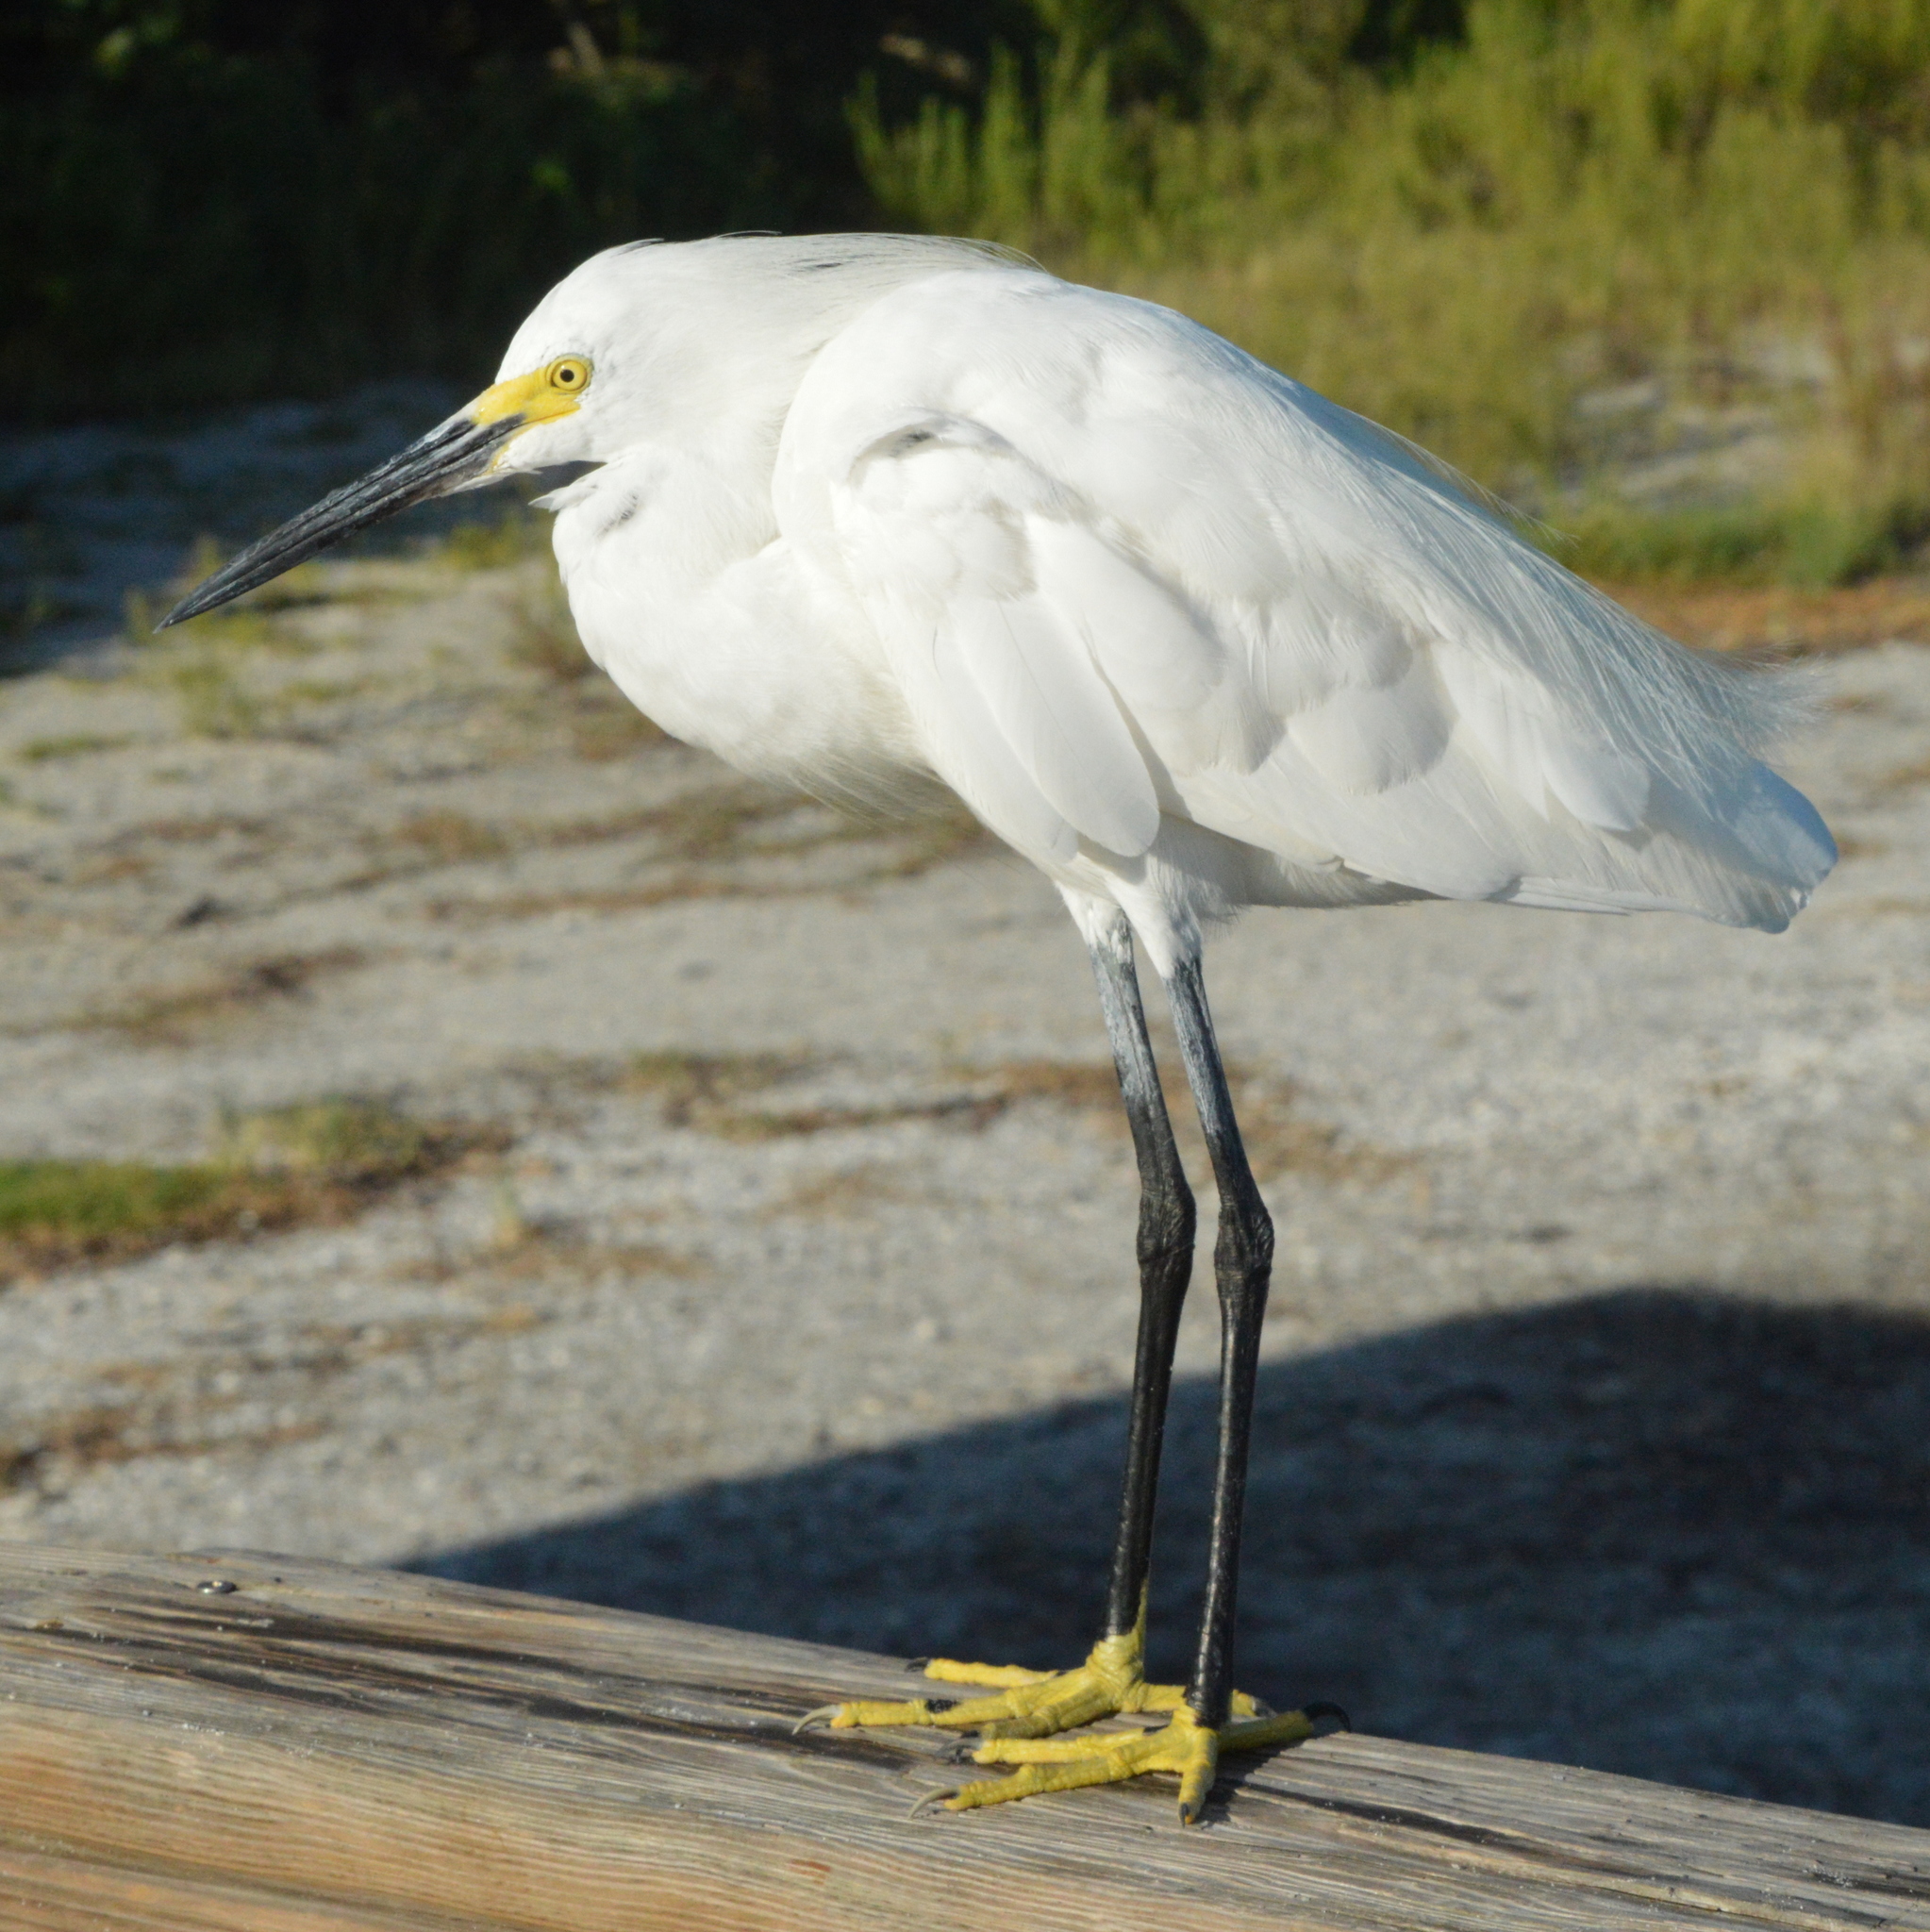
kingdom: Animalia
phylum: Chordata
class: Aves
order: Pelecaniformes
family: Ardeidae
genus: Egretta
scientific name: Egretta thula
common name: Snowy egret
